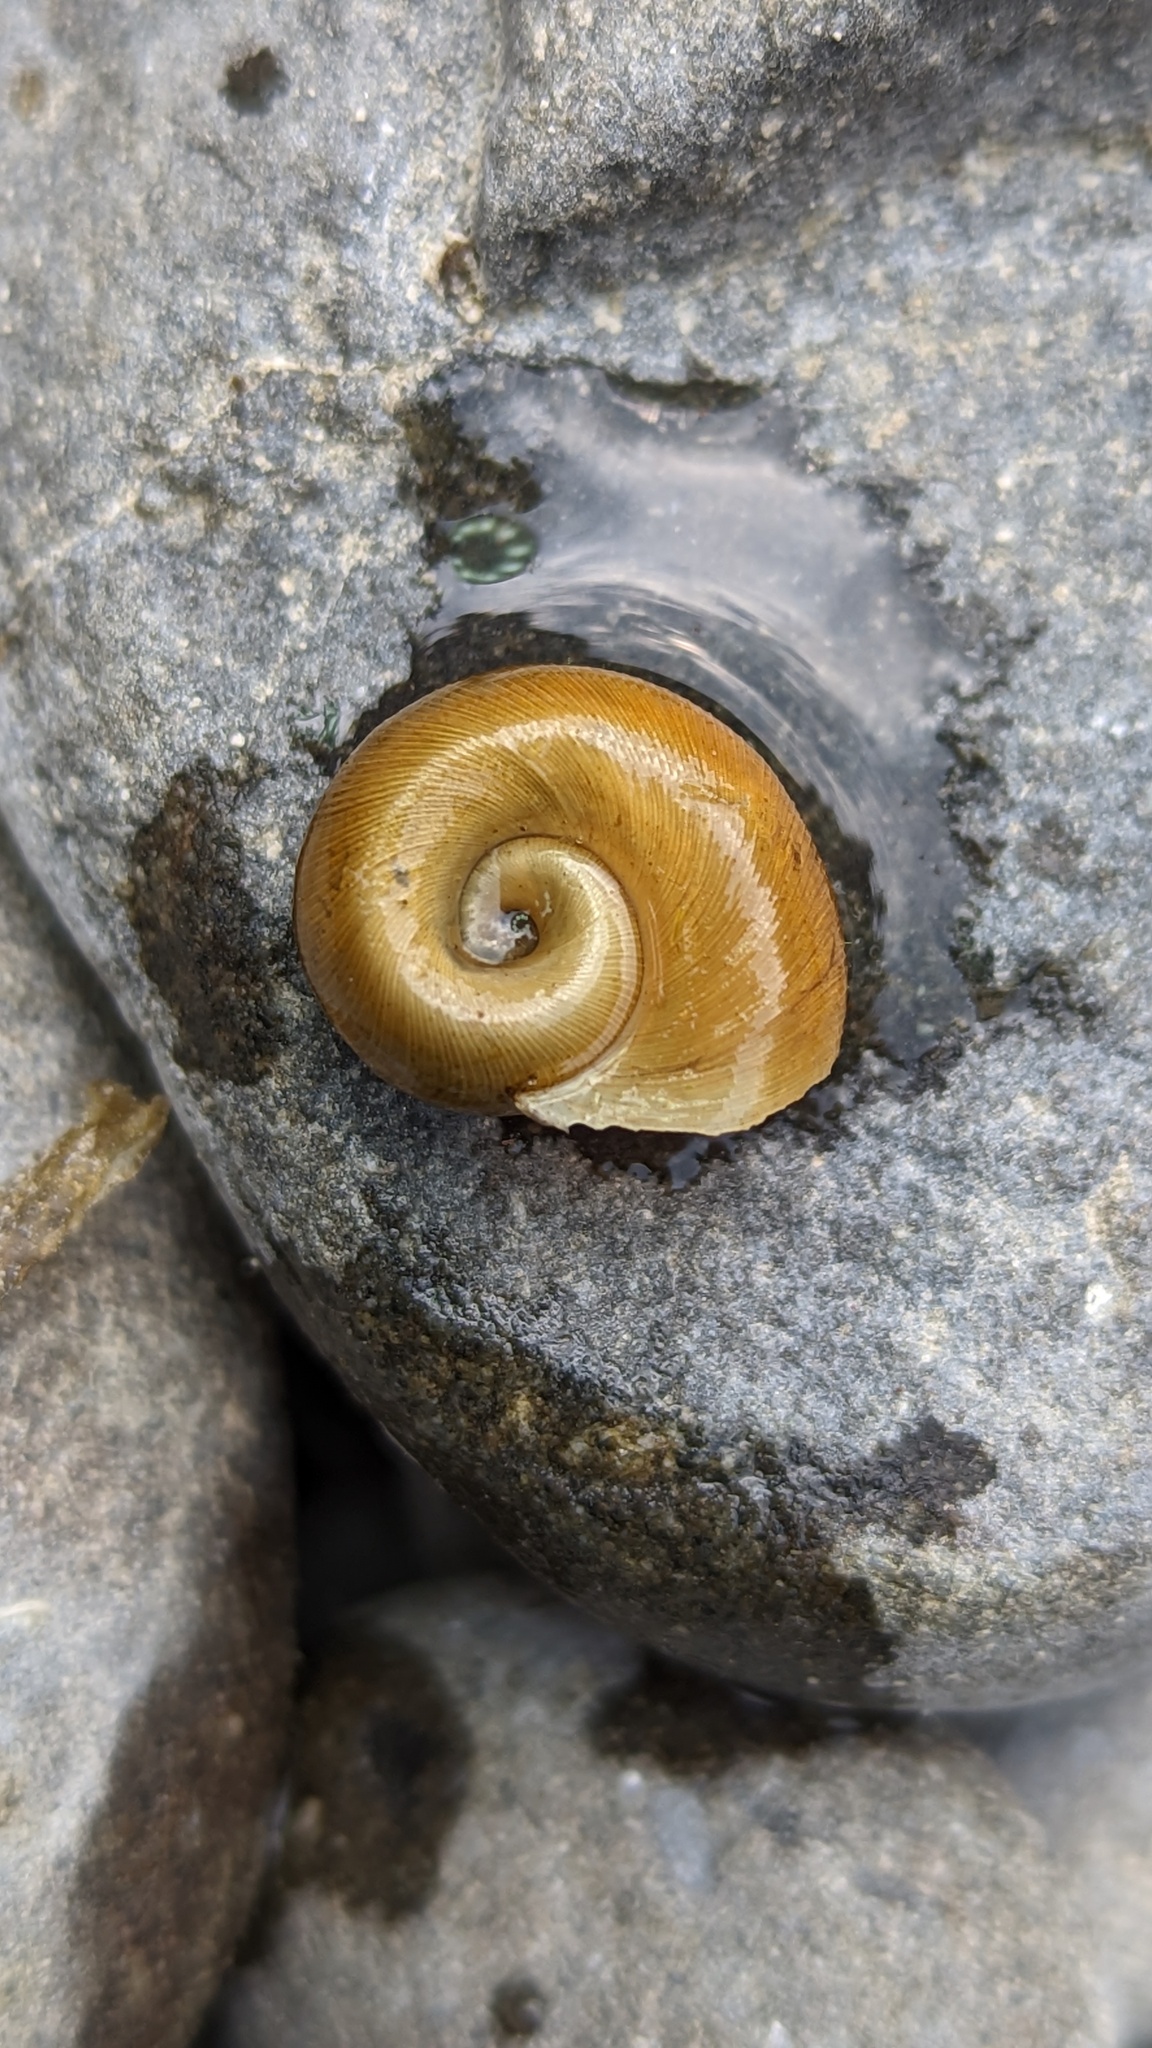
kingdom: Animalia
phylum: Mollusca
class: Gastropoda
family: Planorbidae
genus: Planorbella
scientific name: Planorbella trivolvis
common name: Marsh rams-horn
